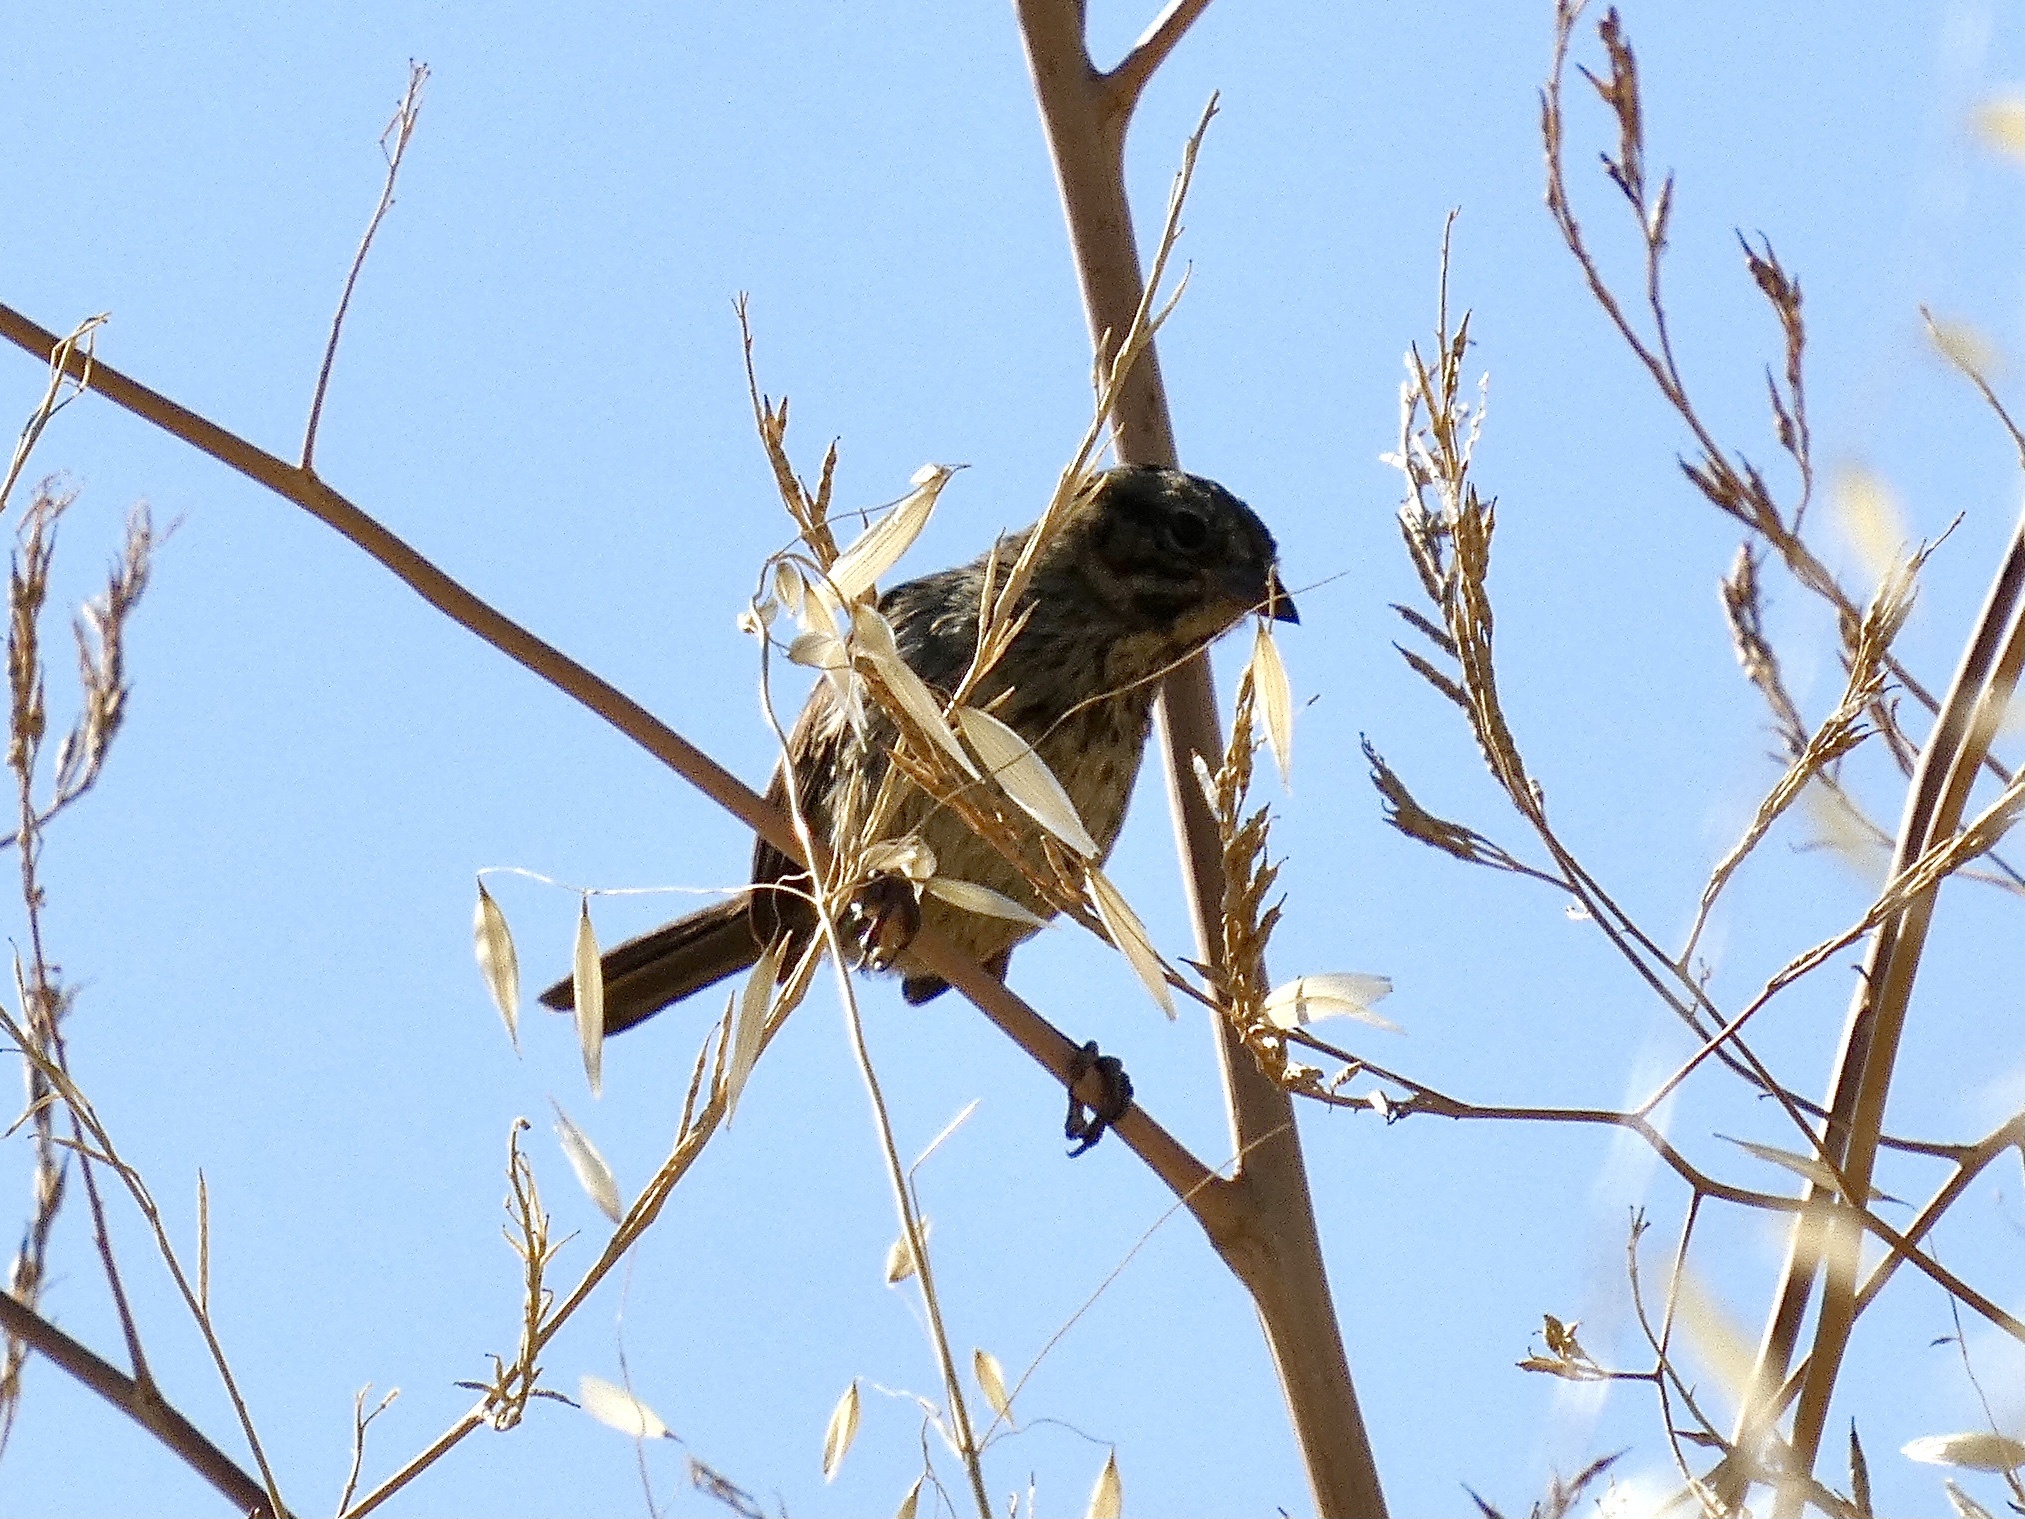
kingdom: Animalia
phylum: Chordata
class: Aves
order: Passeriformes
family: Passerellidae
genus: Melospiza
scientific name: Melospiza melodia
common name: Song sparrow
